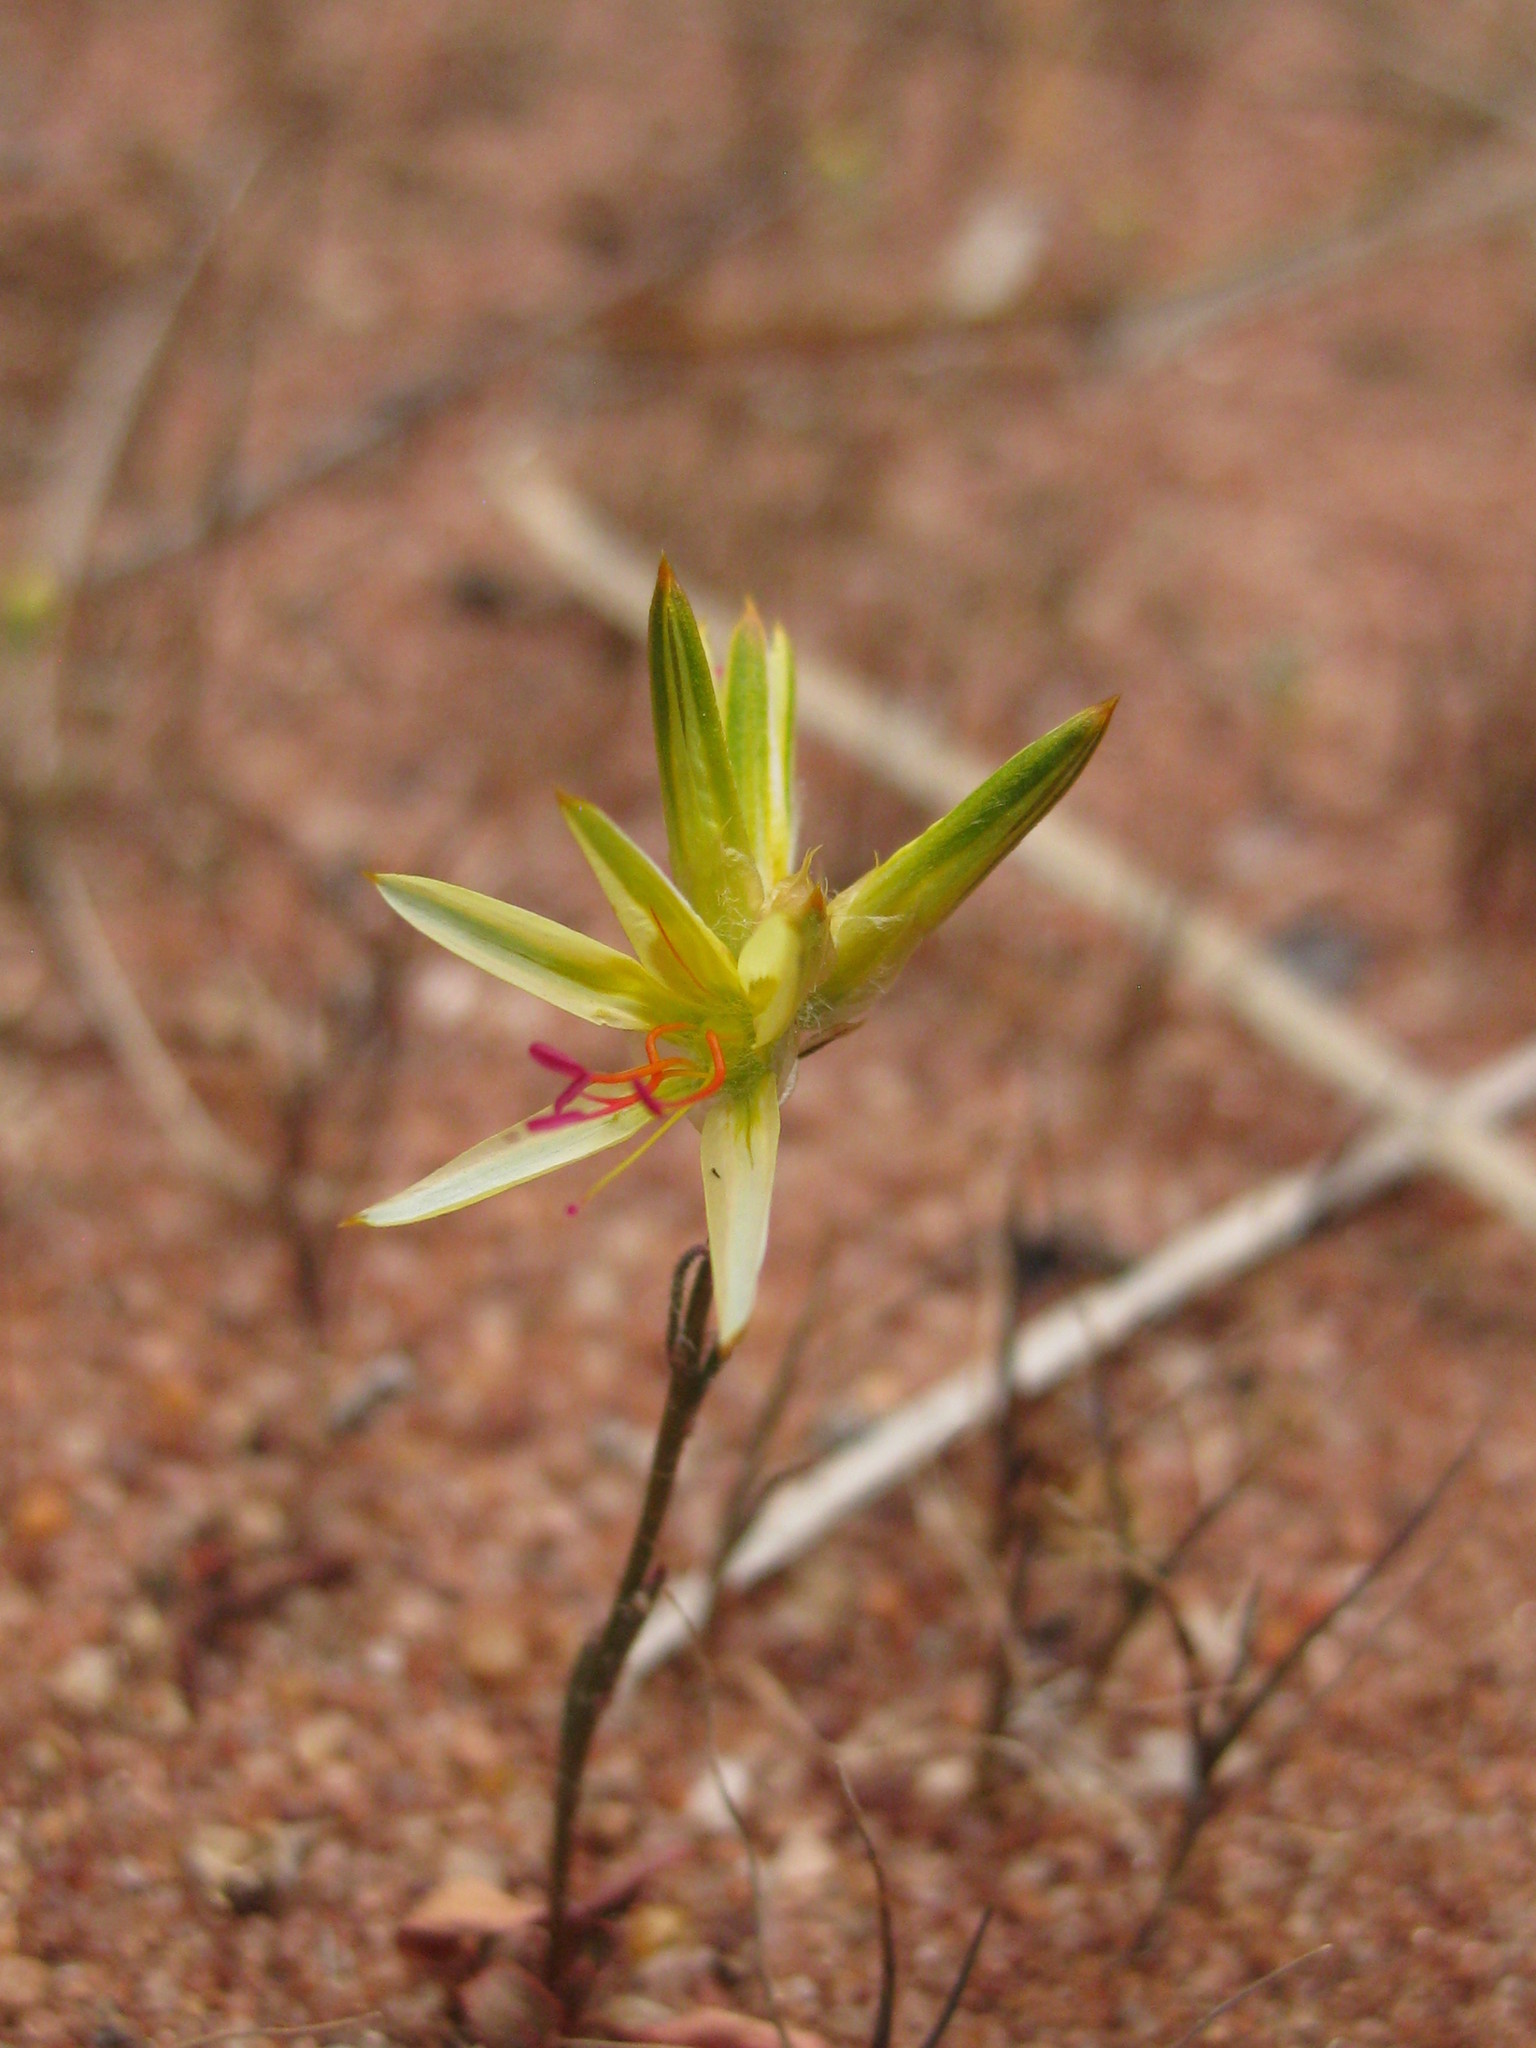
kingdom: Plantae
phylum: Tracheophyta
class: Magnoliopsida
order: Caryophyllales
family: Amaranthaceae
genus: Ptilotus
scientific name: Ptilotus gaudichaudii
